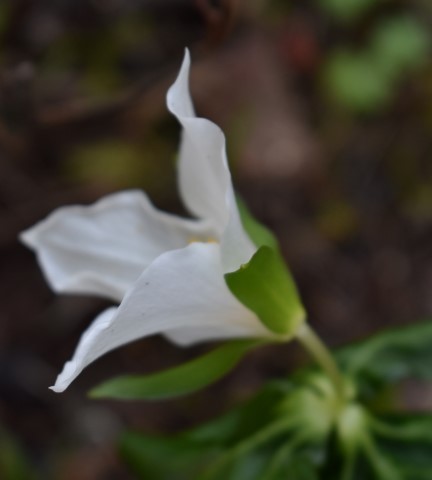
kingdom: Plantae
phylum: Tracheophyta
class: Liliopsida
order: Liliales
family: Melanthiaceae
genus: Trillium
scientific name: Trillium ovatum
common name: Pacific trillium
